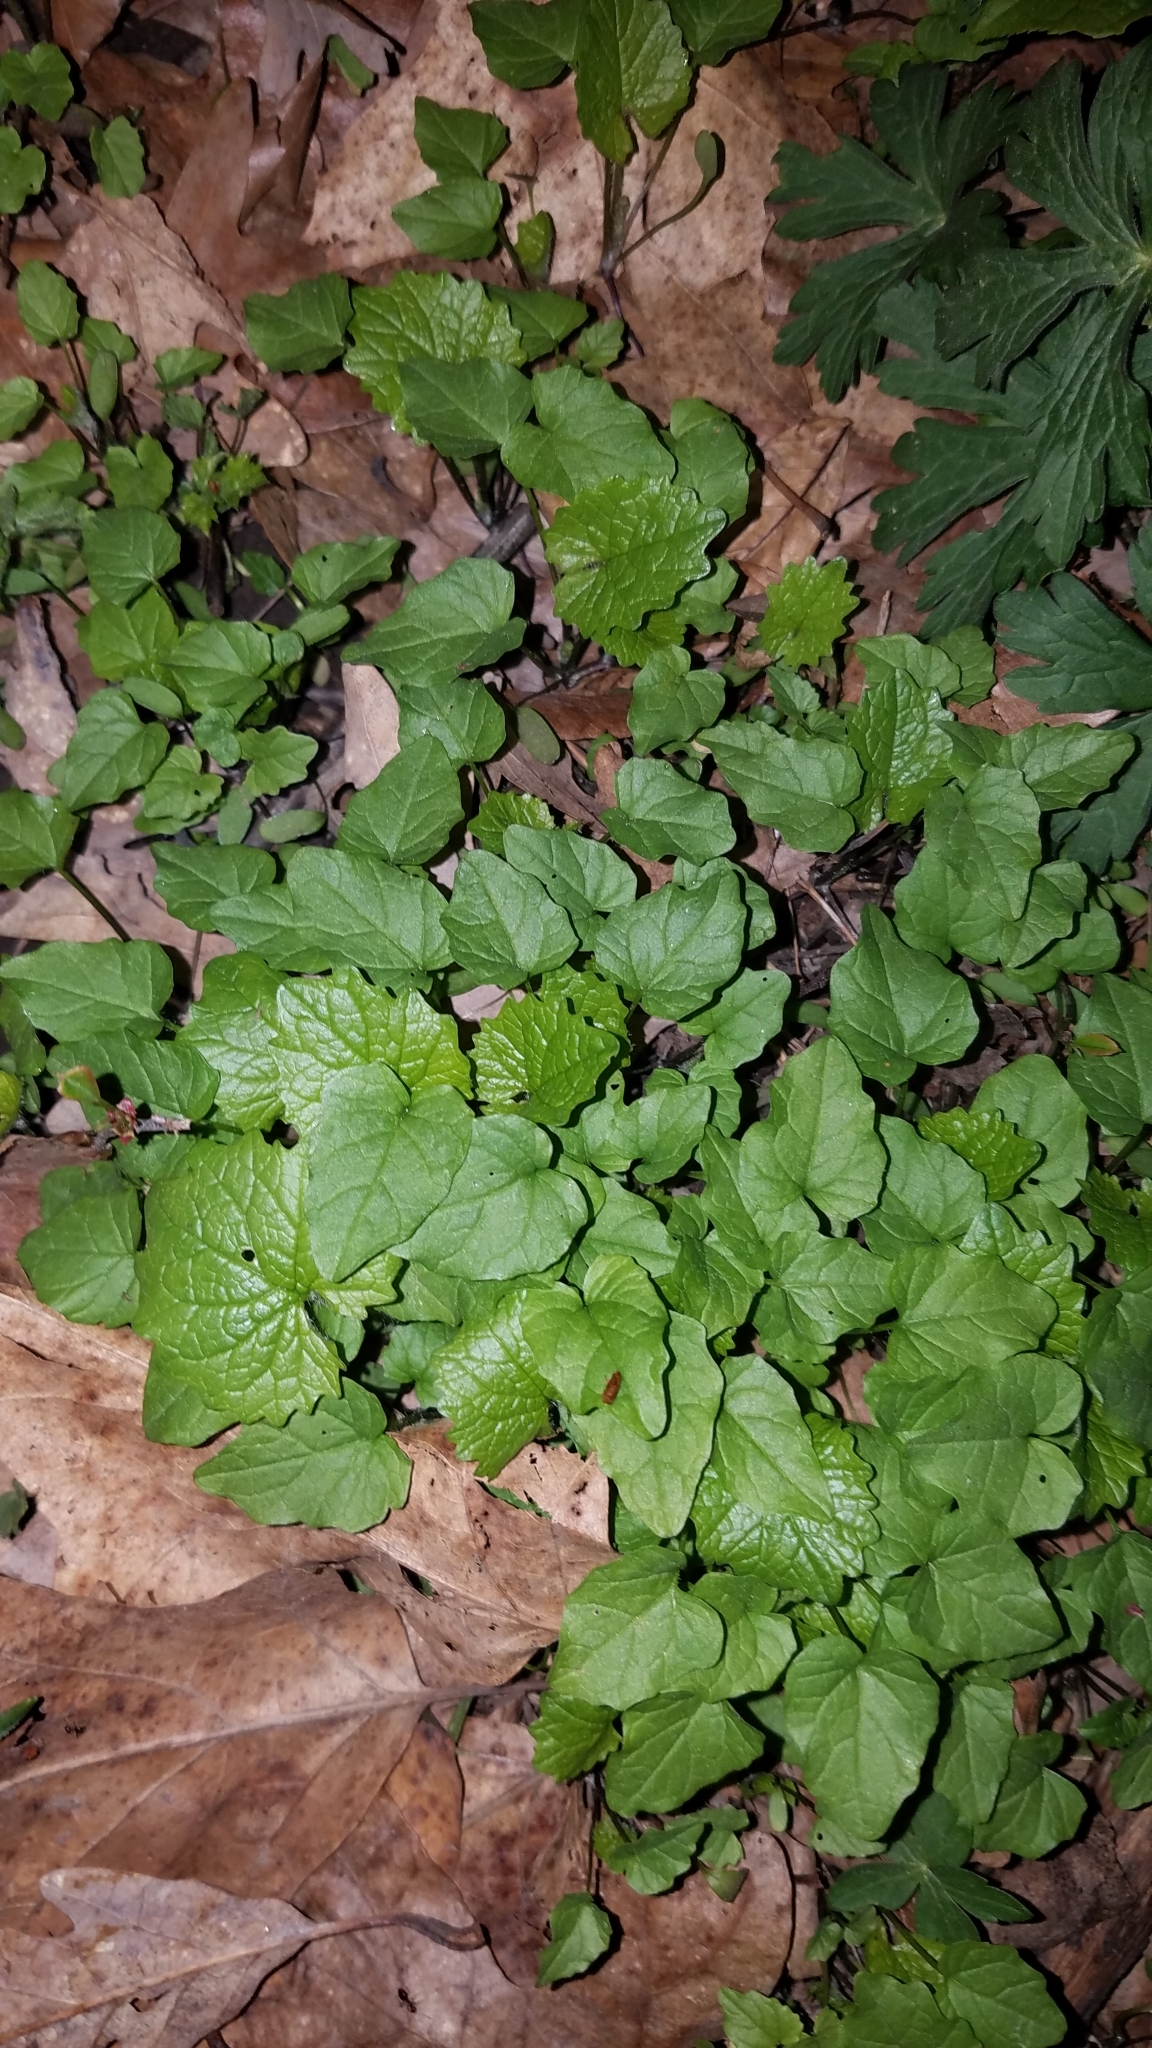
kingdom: Plantae
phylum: Tracheophyta
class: Magnoliopsida
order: Brassicales
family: Brassicaceae
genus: Alliaria
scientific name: Alliaria petiolata
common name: Garlic mustard
